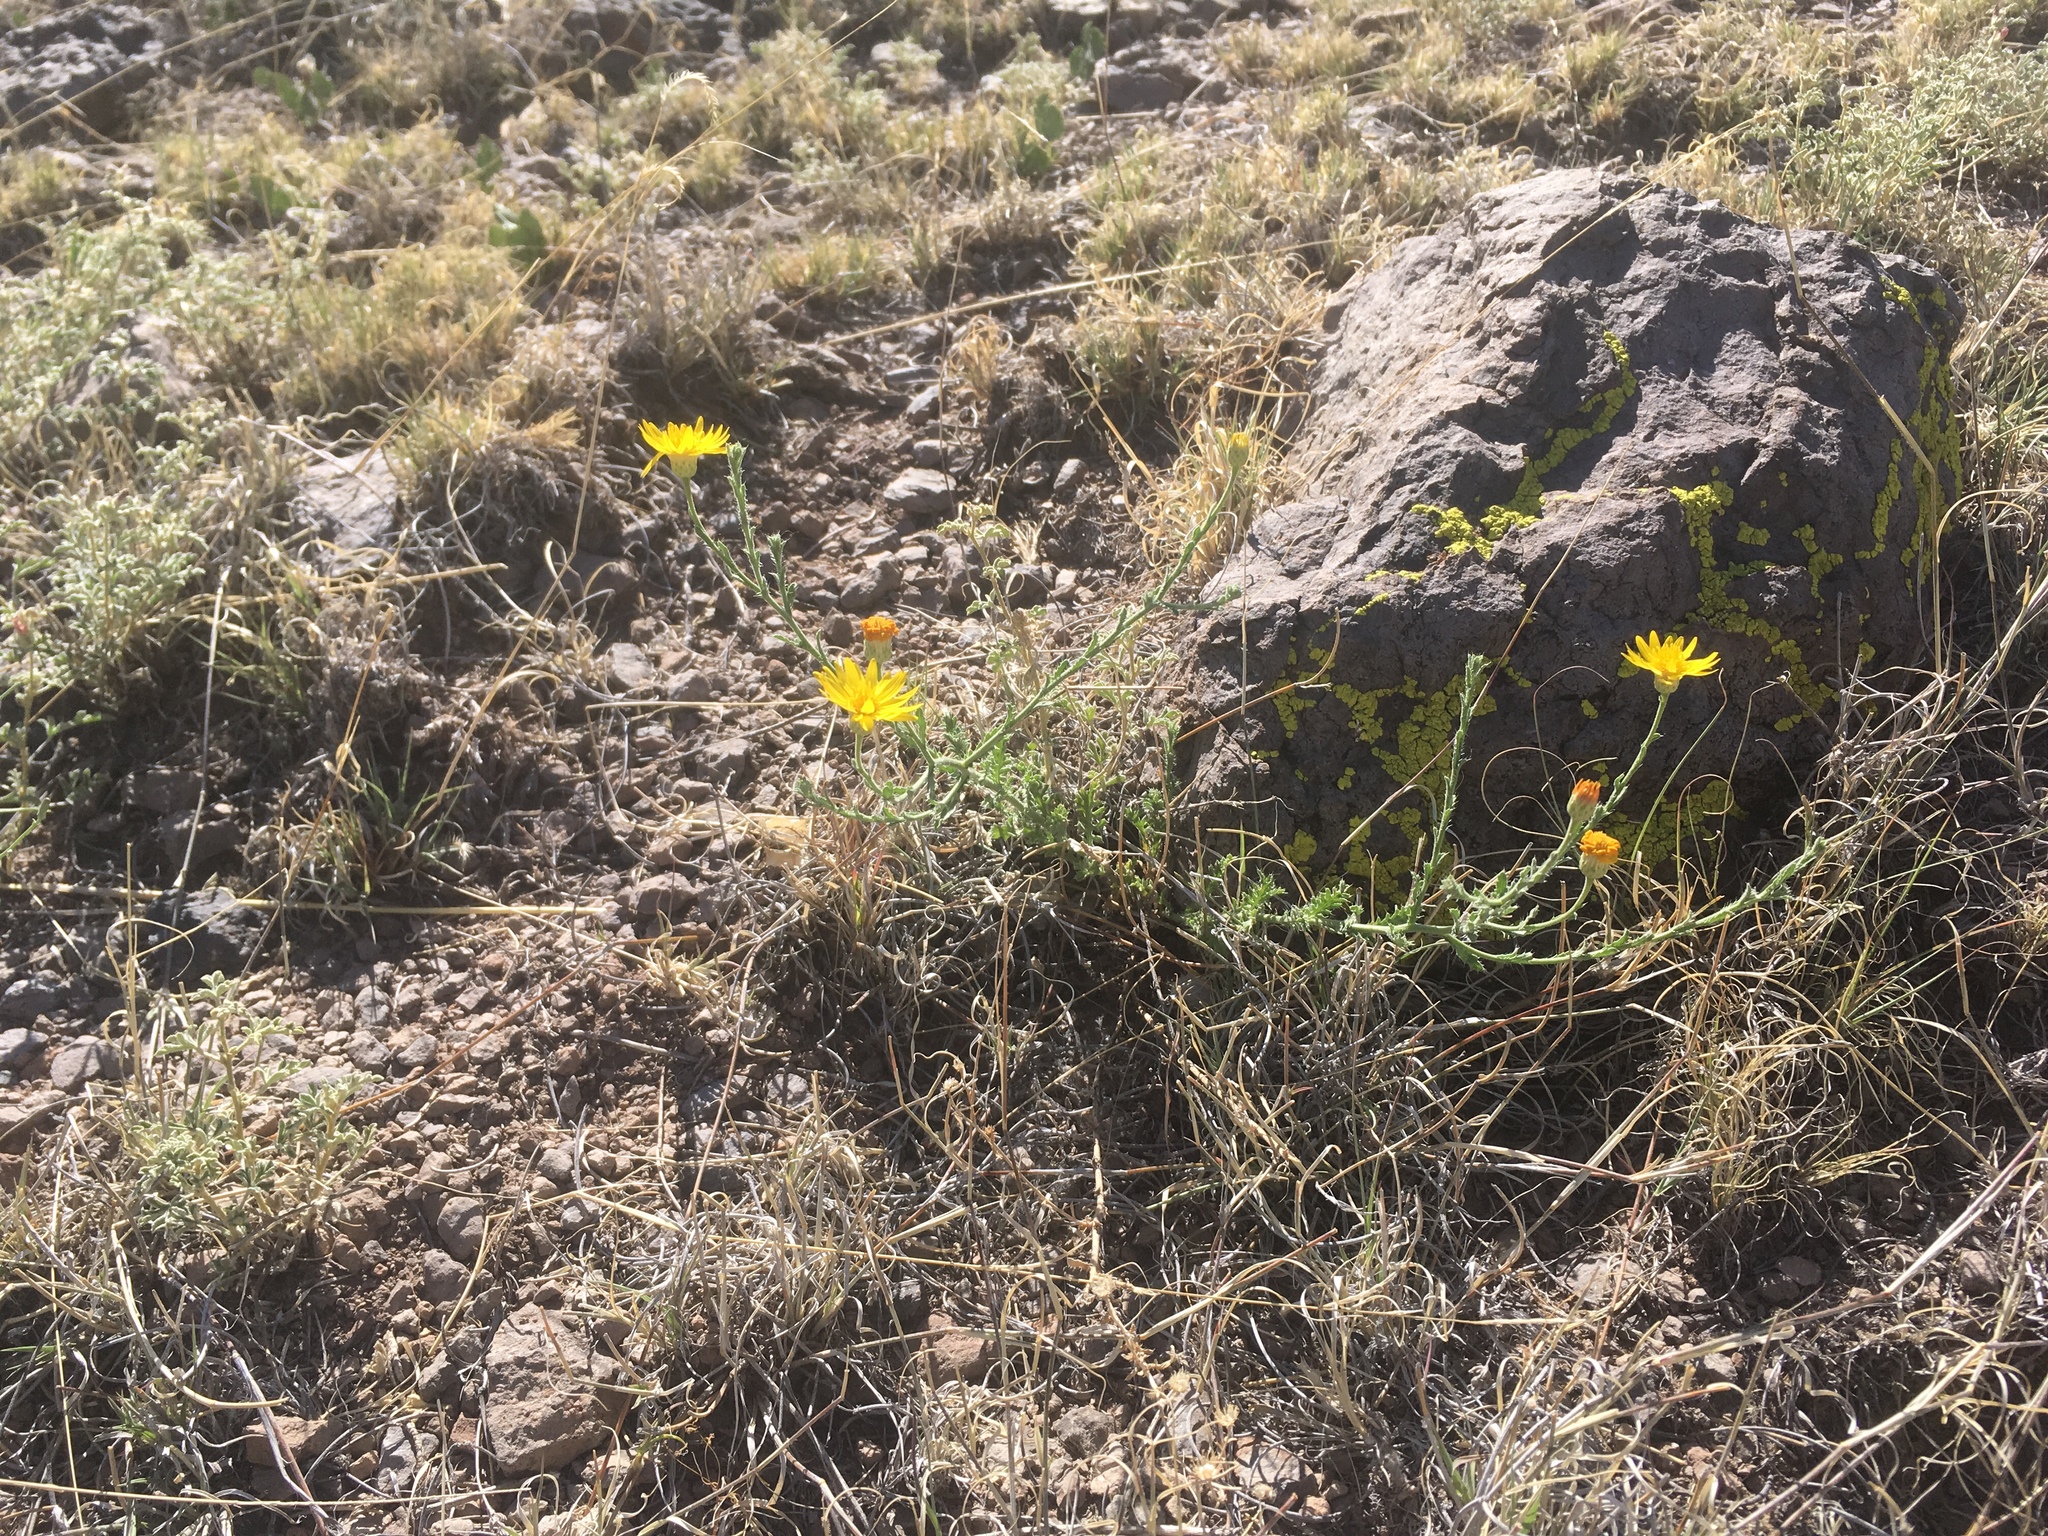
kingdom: Plantae
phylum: Tracheophyta
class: Magnoliopsida
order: Asterales
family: Asteraceae
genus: Xanthisma
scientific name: Xanthisma spinulosum
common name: Spiny goldenweed
